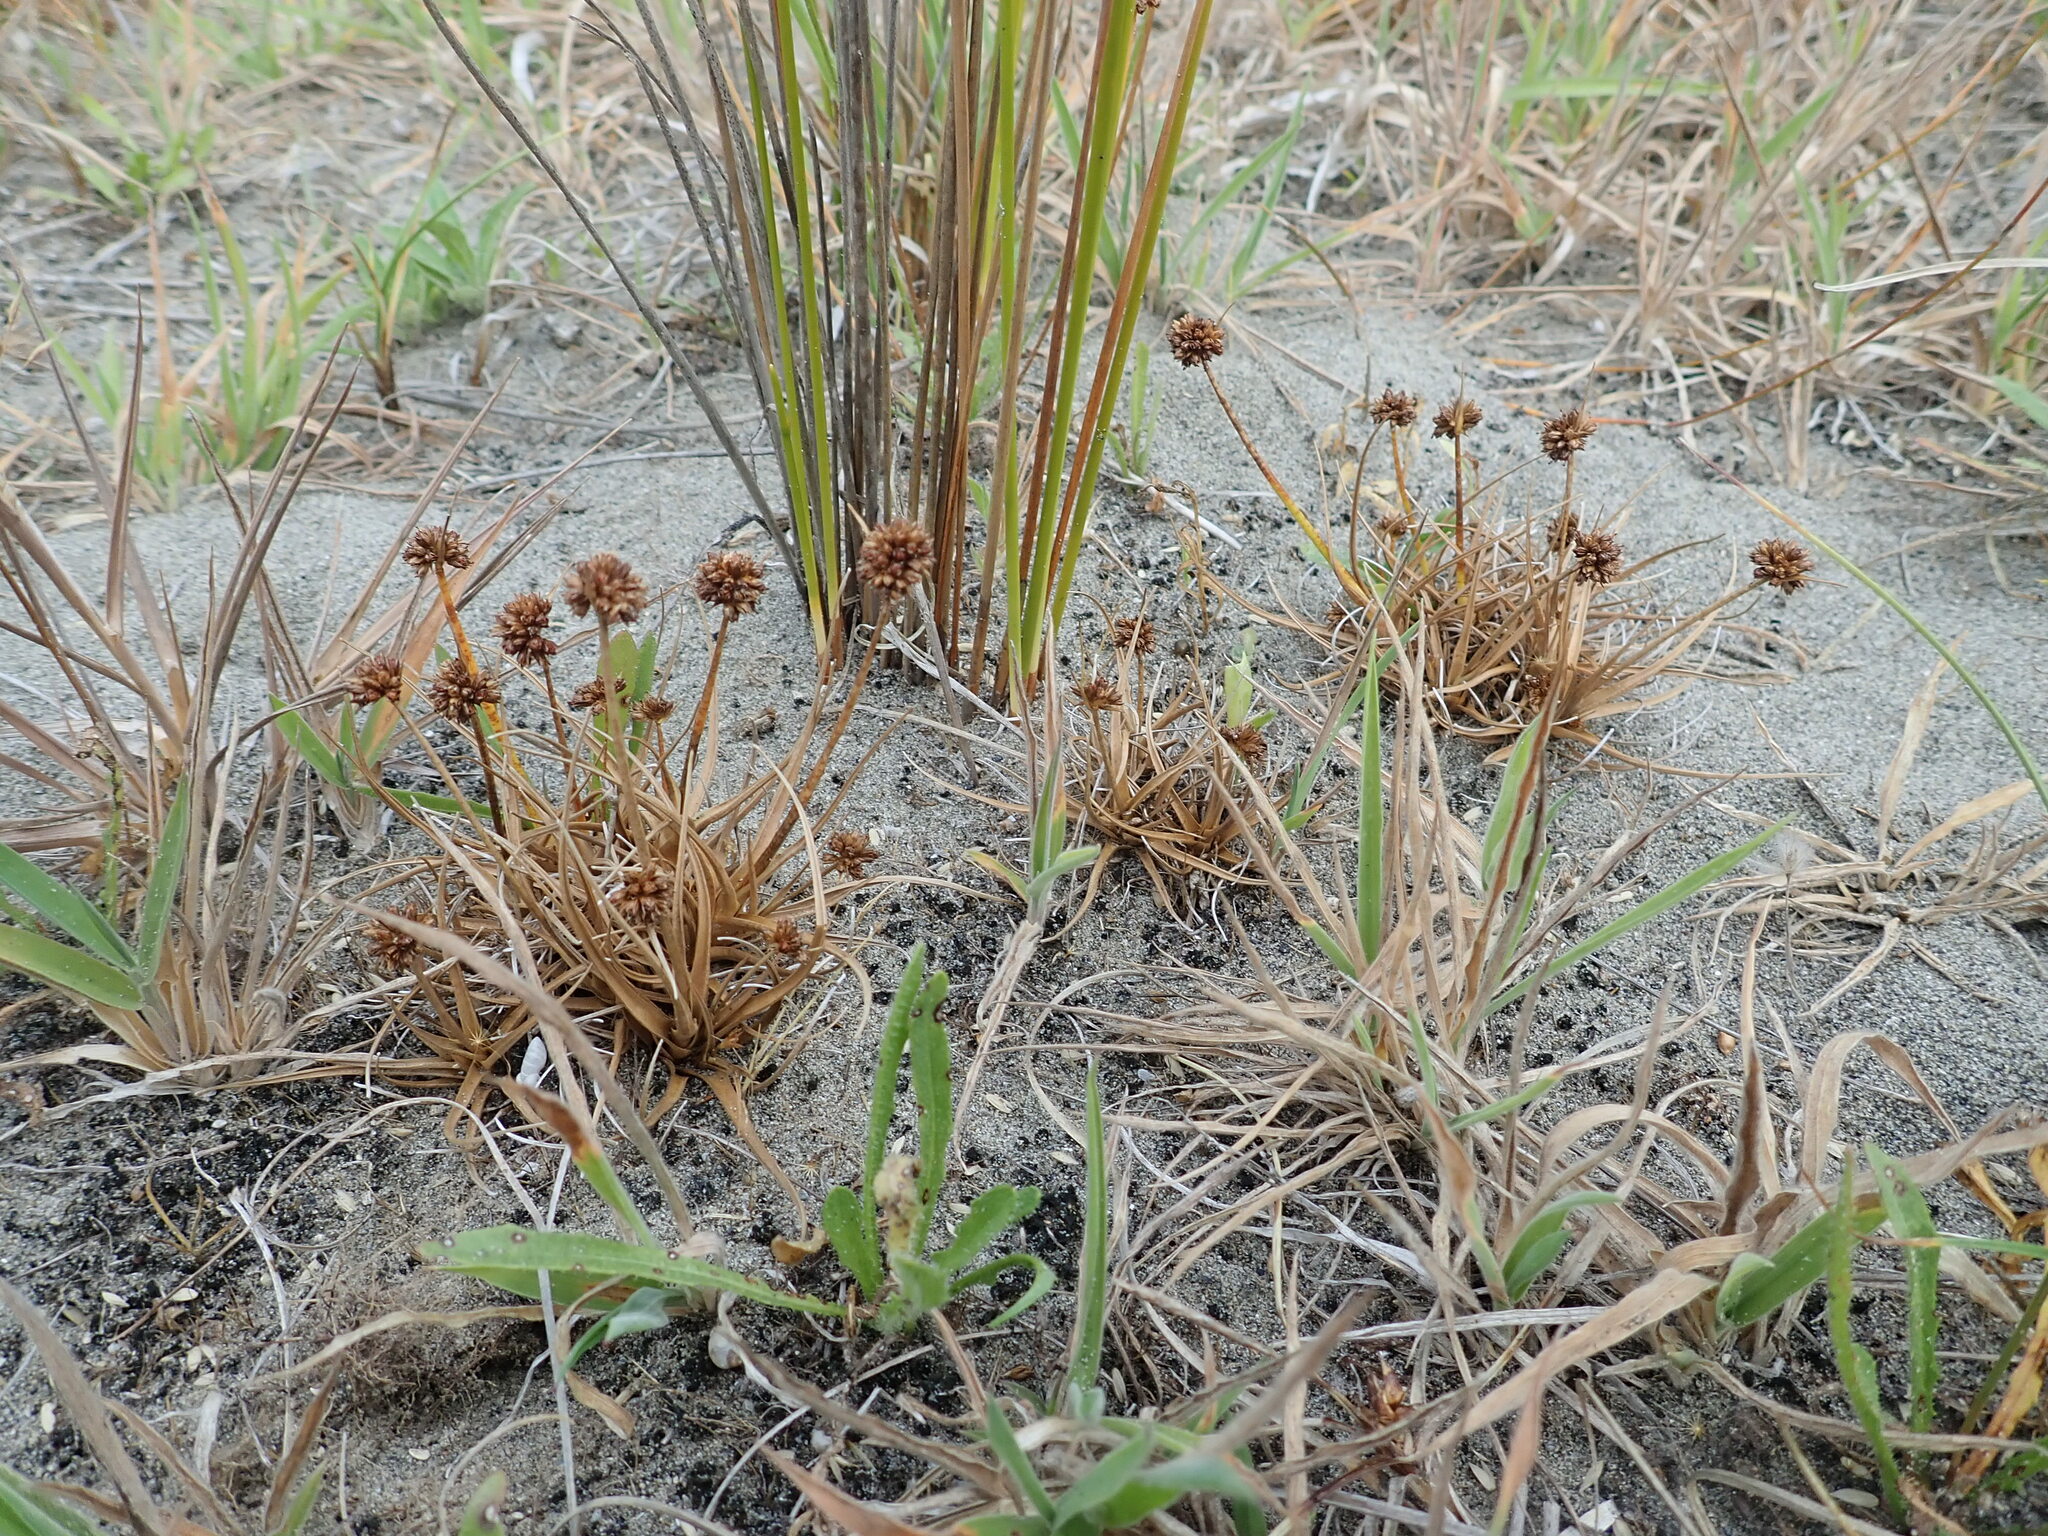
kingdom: Plantae
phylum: Tracheophyta
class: Liliopsida
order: Poales
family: Juncaceae
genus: Juncus
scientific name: Juncus caespiticius
